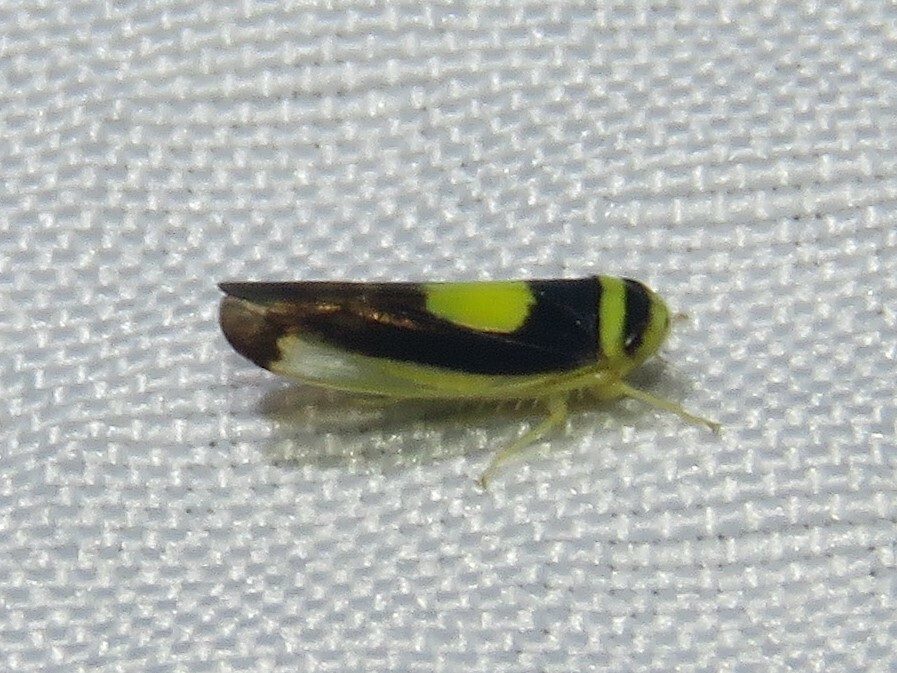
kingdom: Animalia
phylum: Arthropoda
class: Insecta
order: Hemiptera
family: Cicadellidae
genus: Colladonus
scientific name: Colladonus clitellarius
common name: The saddleback leafhopper
